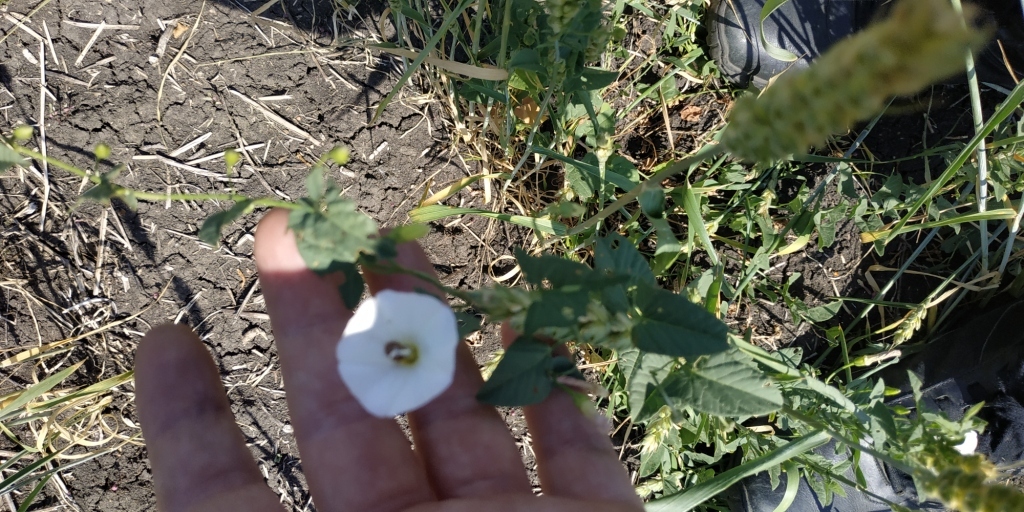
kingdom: Plantae
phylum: Tracheophyta
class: Magnoliopsida
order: Solanales
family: Convolvulaceae
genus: Convolvulus
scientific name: Convolvulus arvensis
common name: Field bindweed
